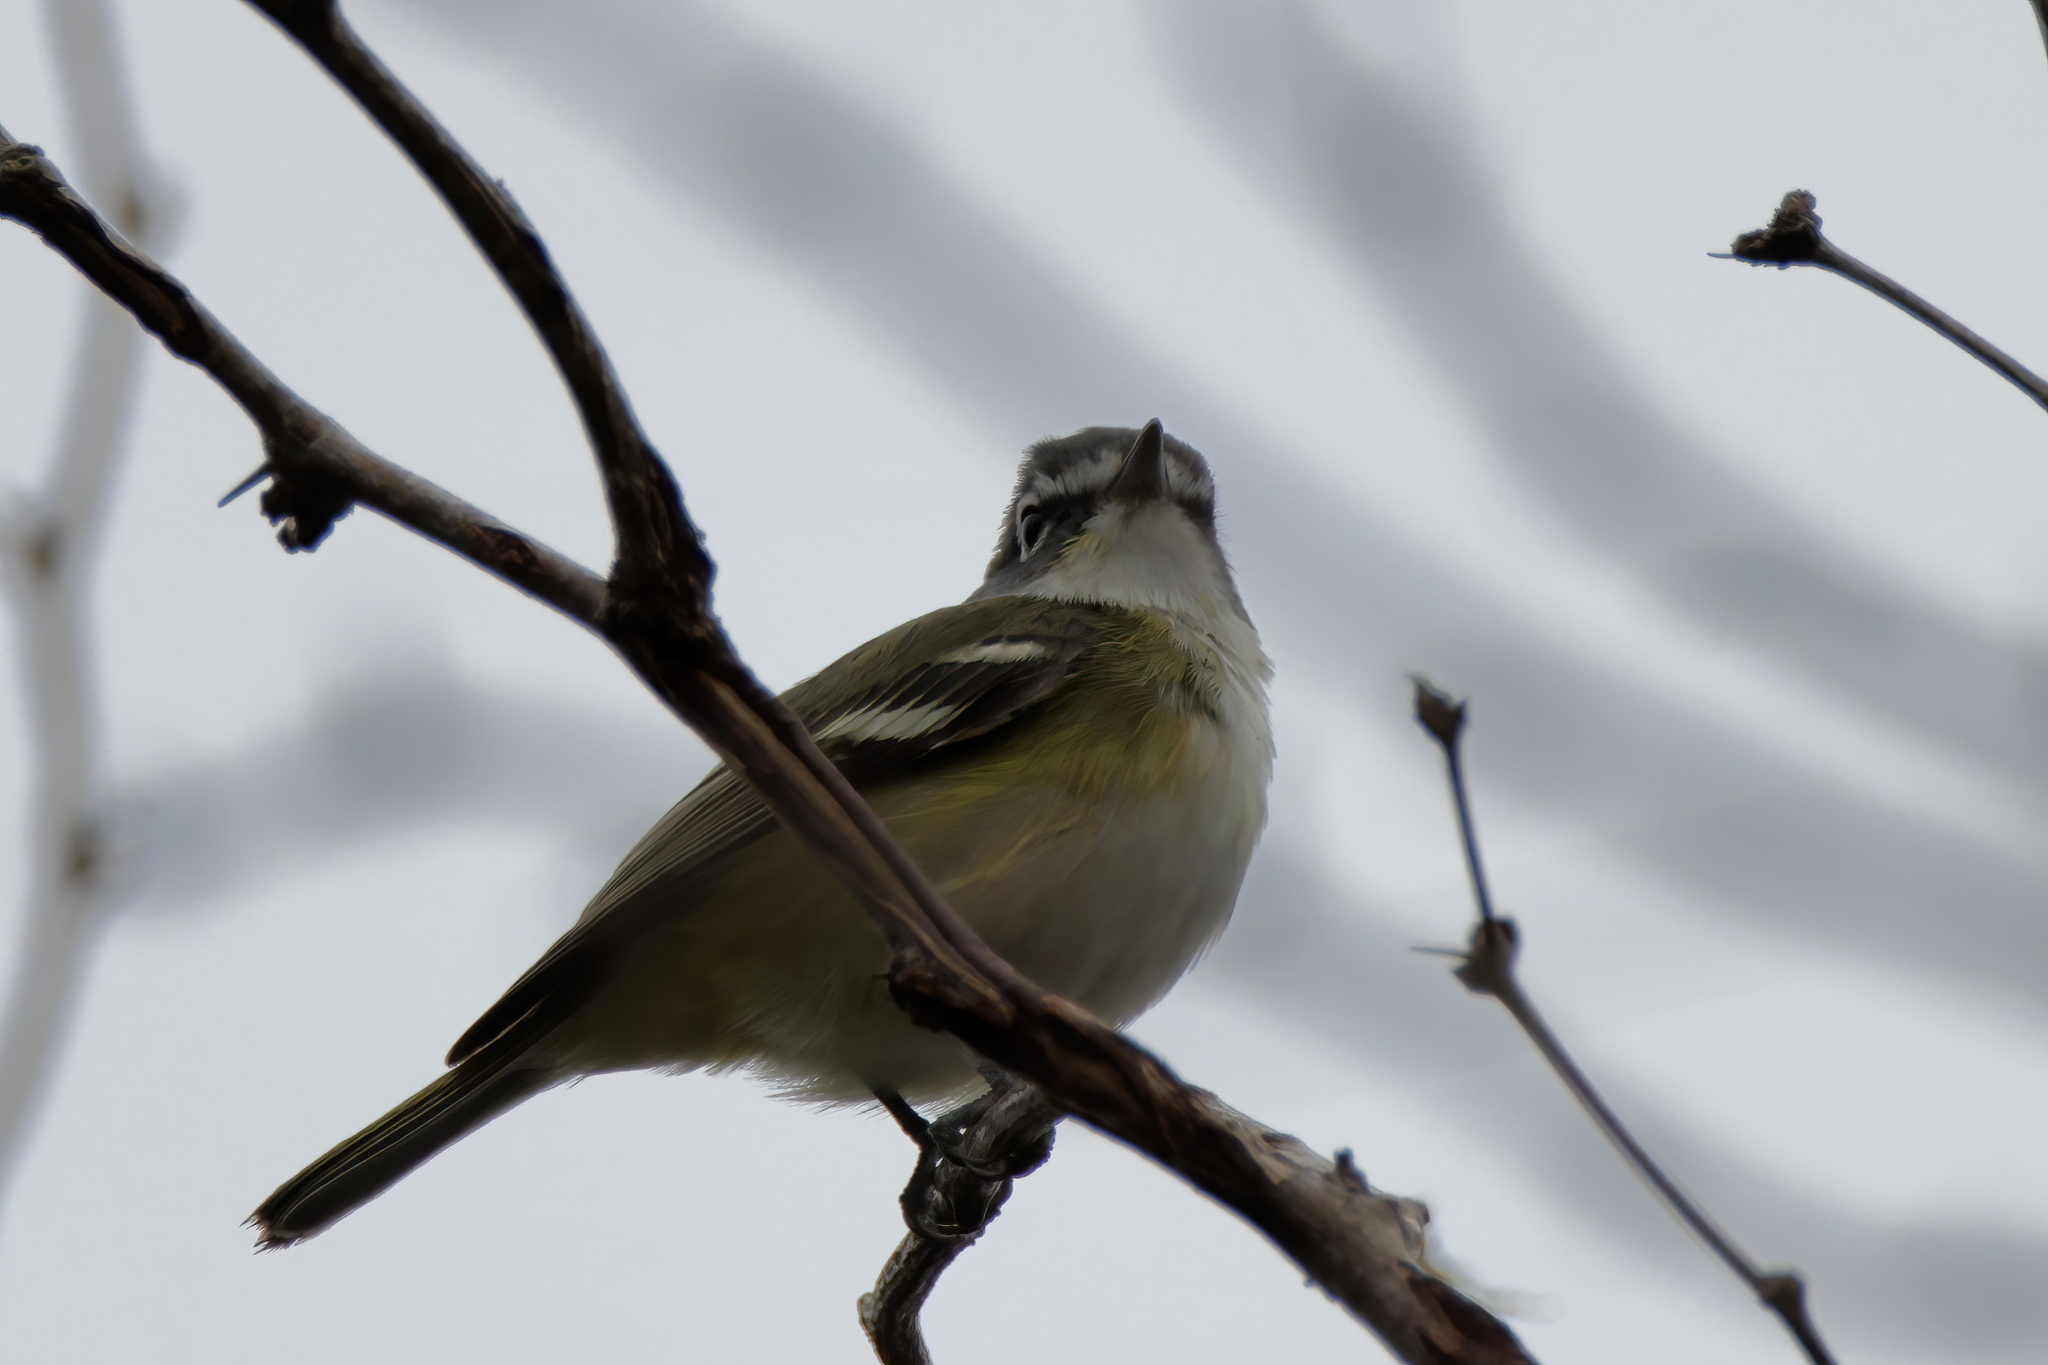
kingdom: Animalia
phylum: Chordata
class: Aves
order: Passeriformes
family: Vireonidae
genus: Vireo
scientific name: Vireo solitarius
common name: Blue-headed vireo
